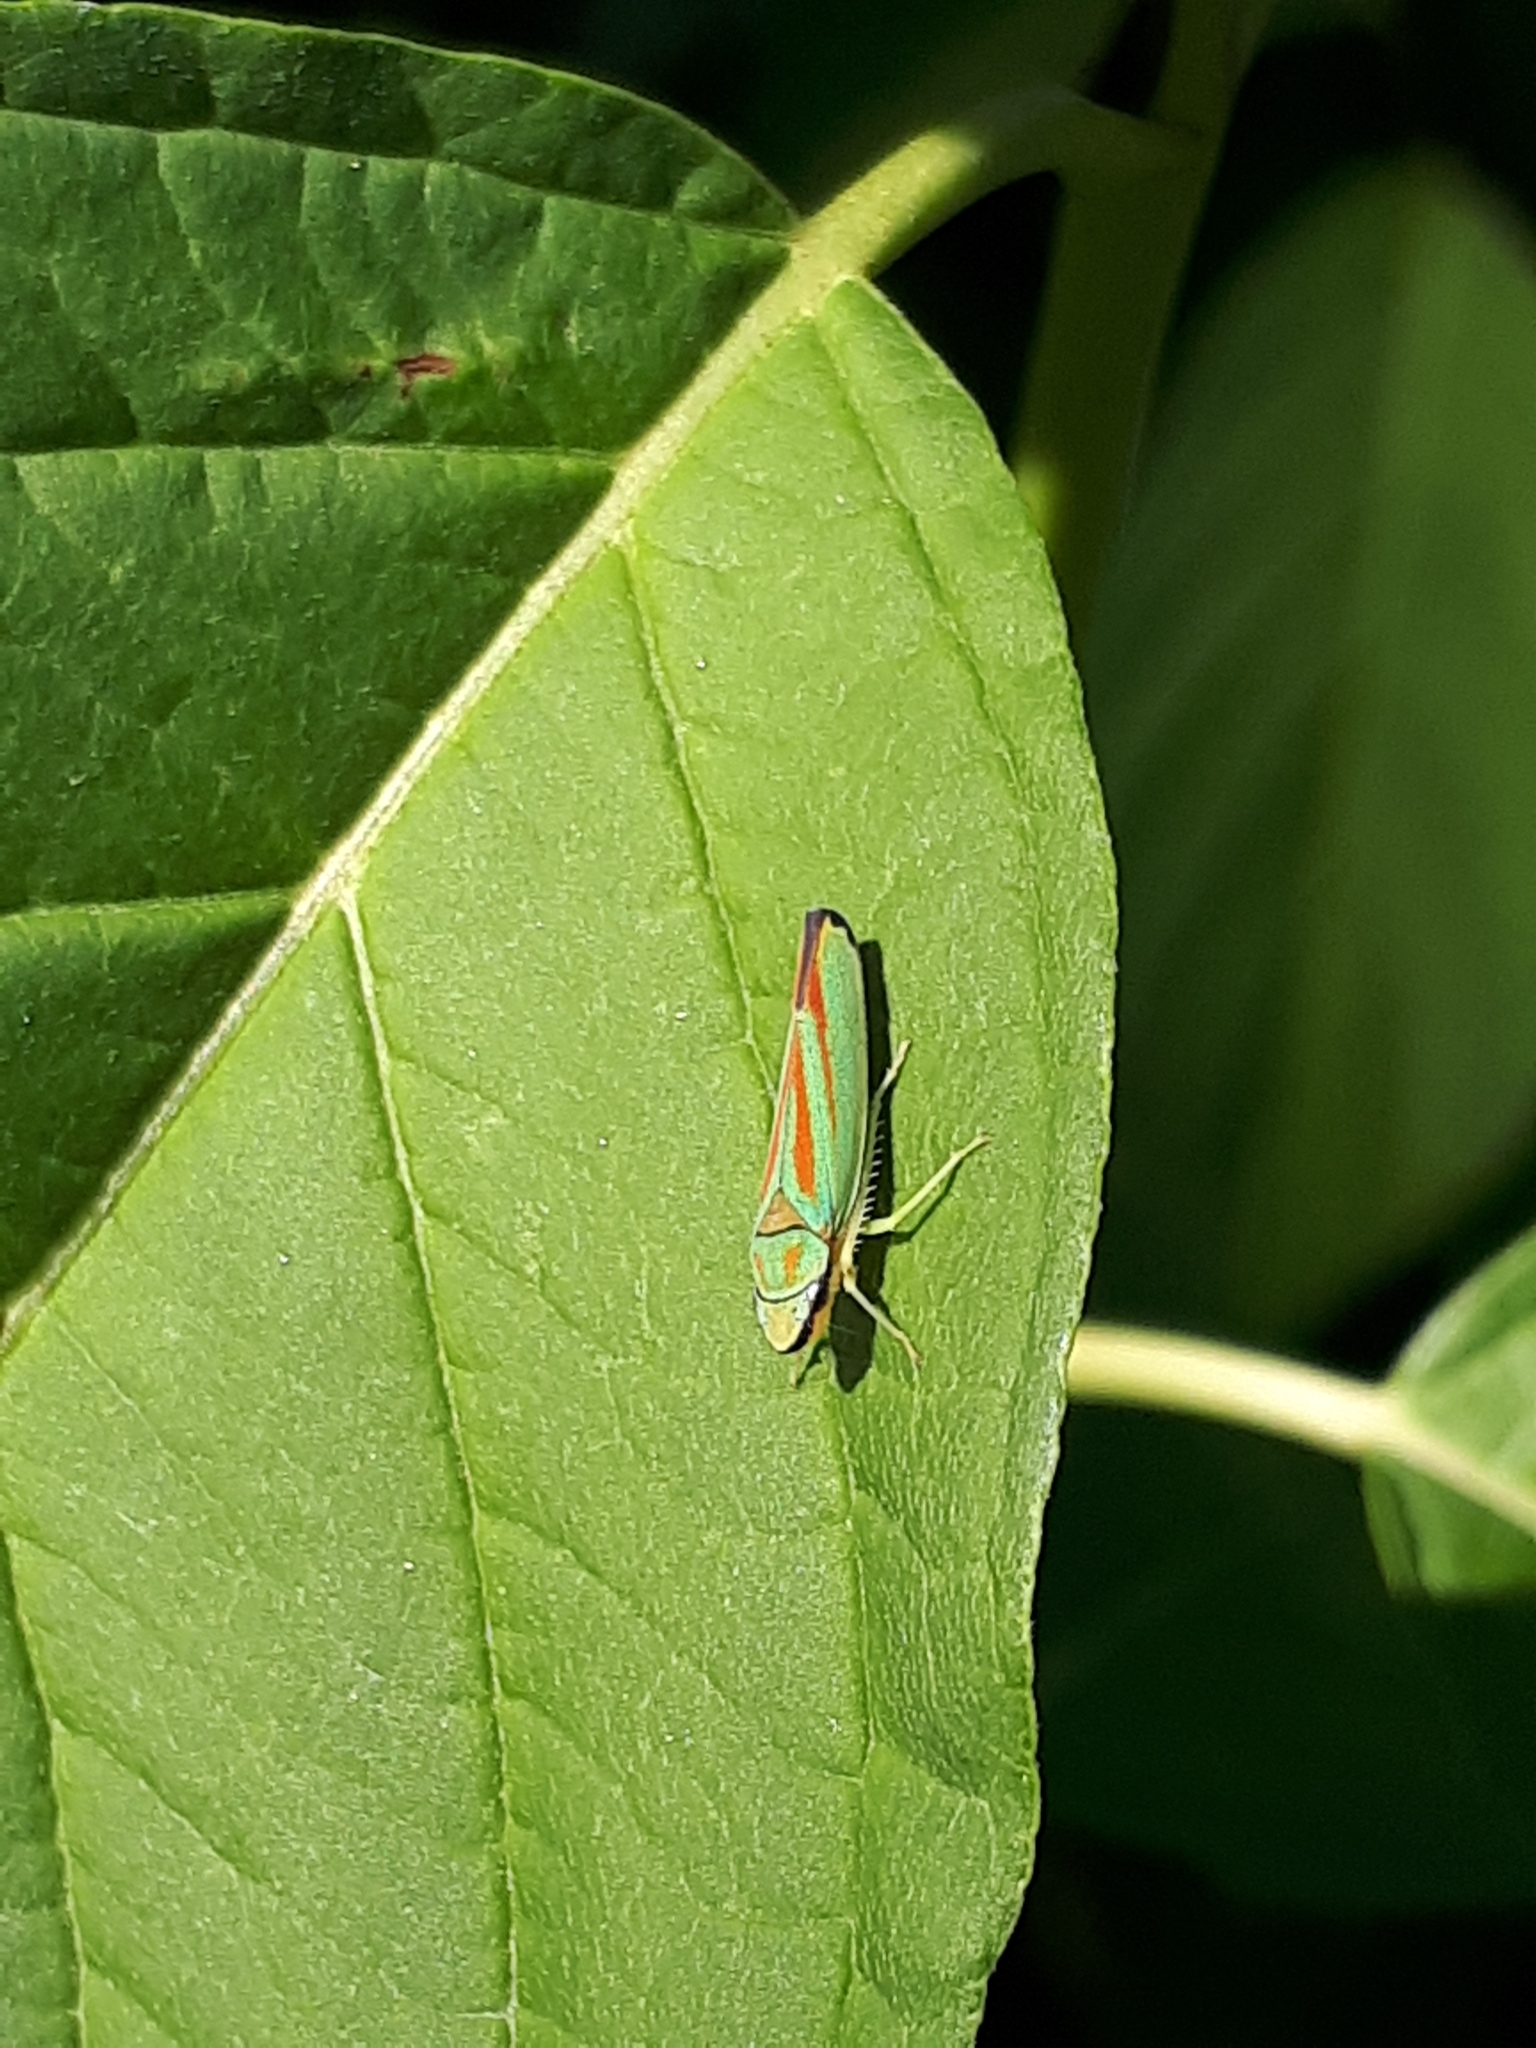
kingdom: Animalia
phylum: Arthropoda
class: Insecta
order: Hemiptera
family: Cicadellidae
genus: Graphocephala
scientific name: Graphocephala fennahi
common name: Rhododendron leafhopper
